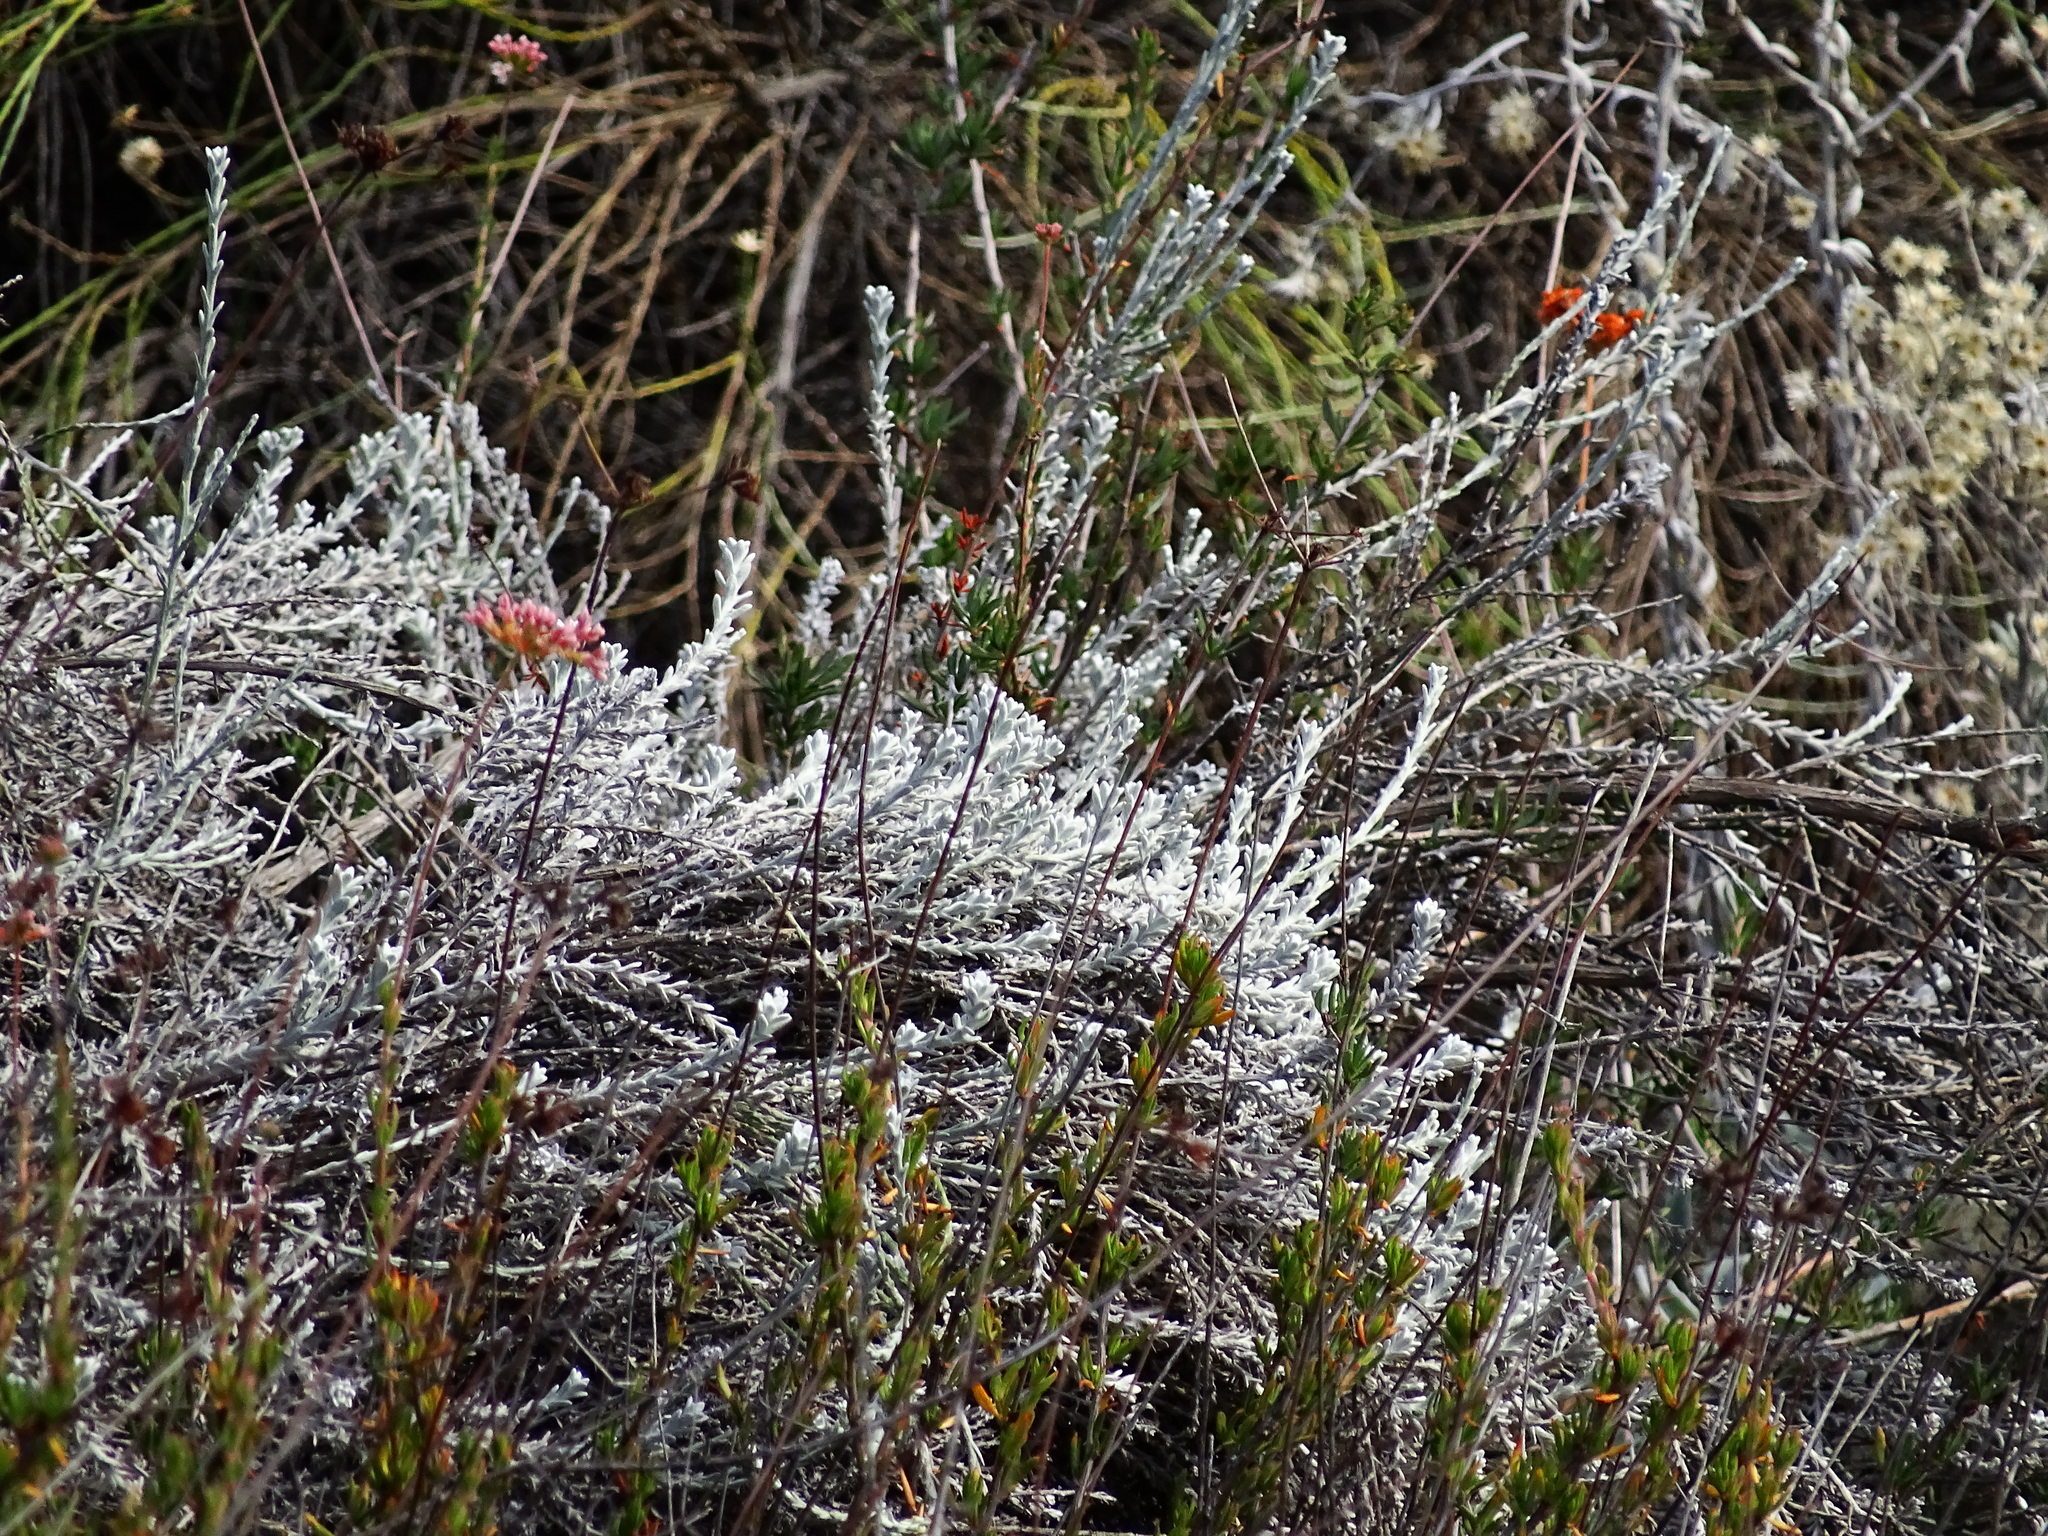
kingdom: Plantae
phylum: Tracheophyta
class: Magnoliopsida
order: Asterales
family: Asteraceae
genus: Lepidospartum
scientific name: Lepidospartum squamatum
